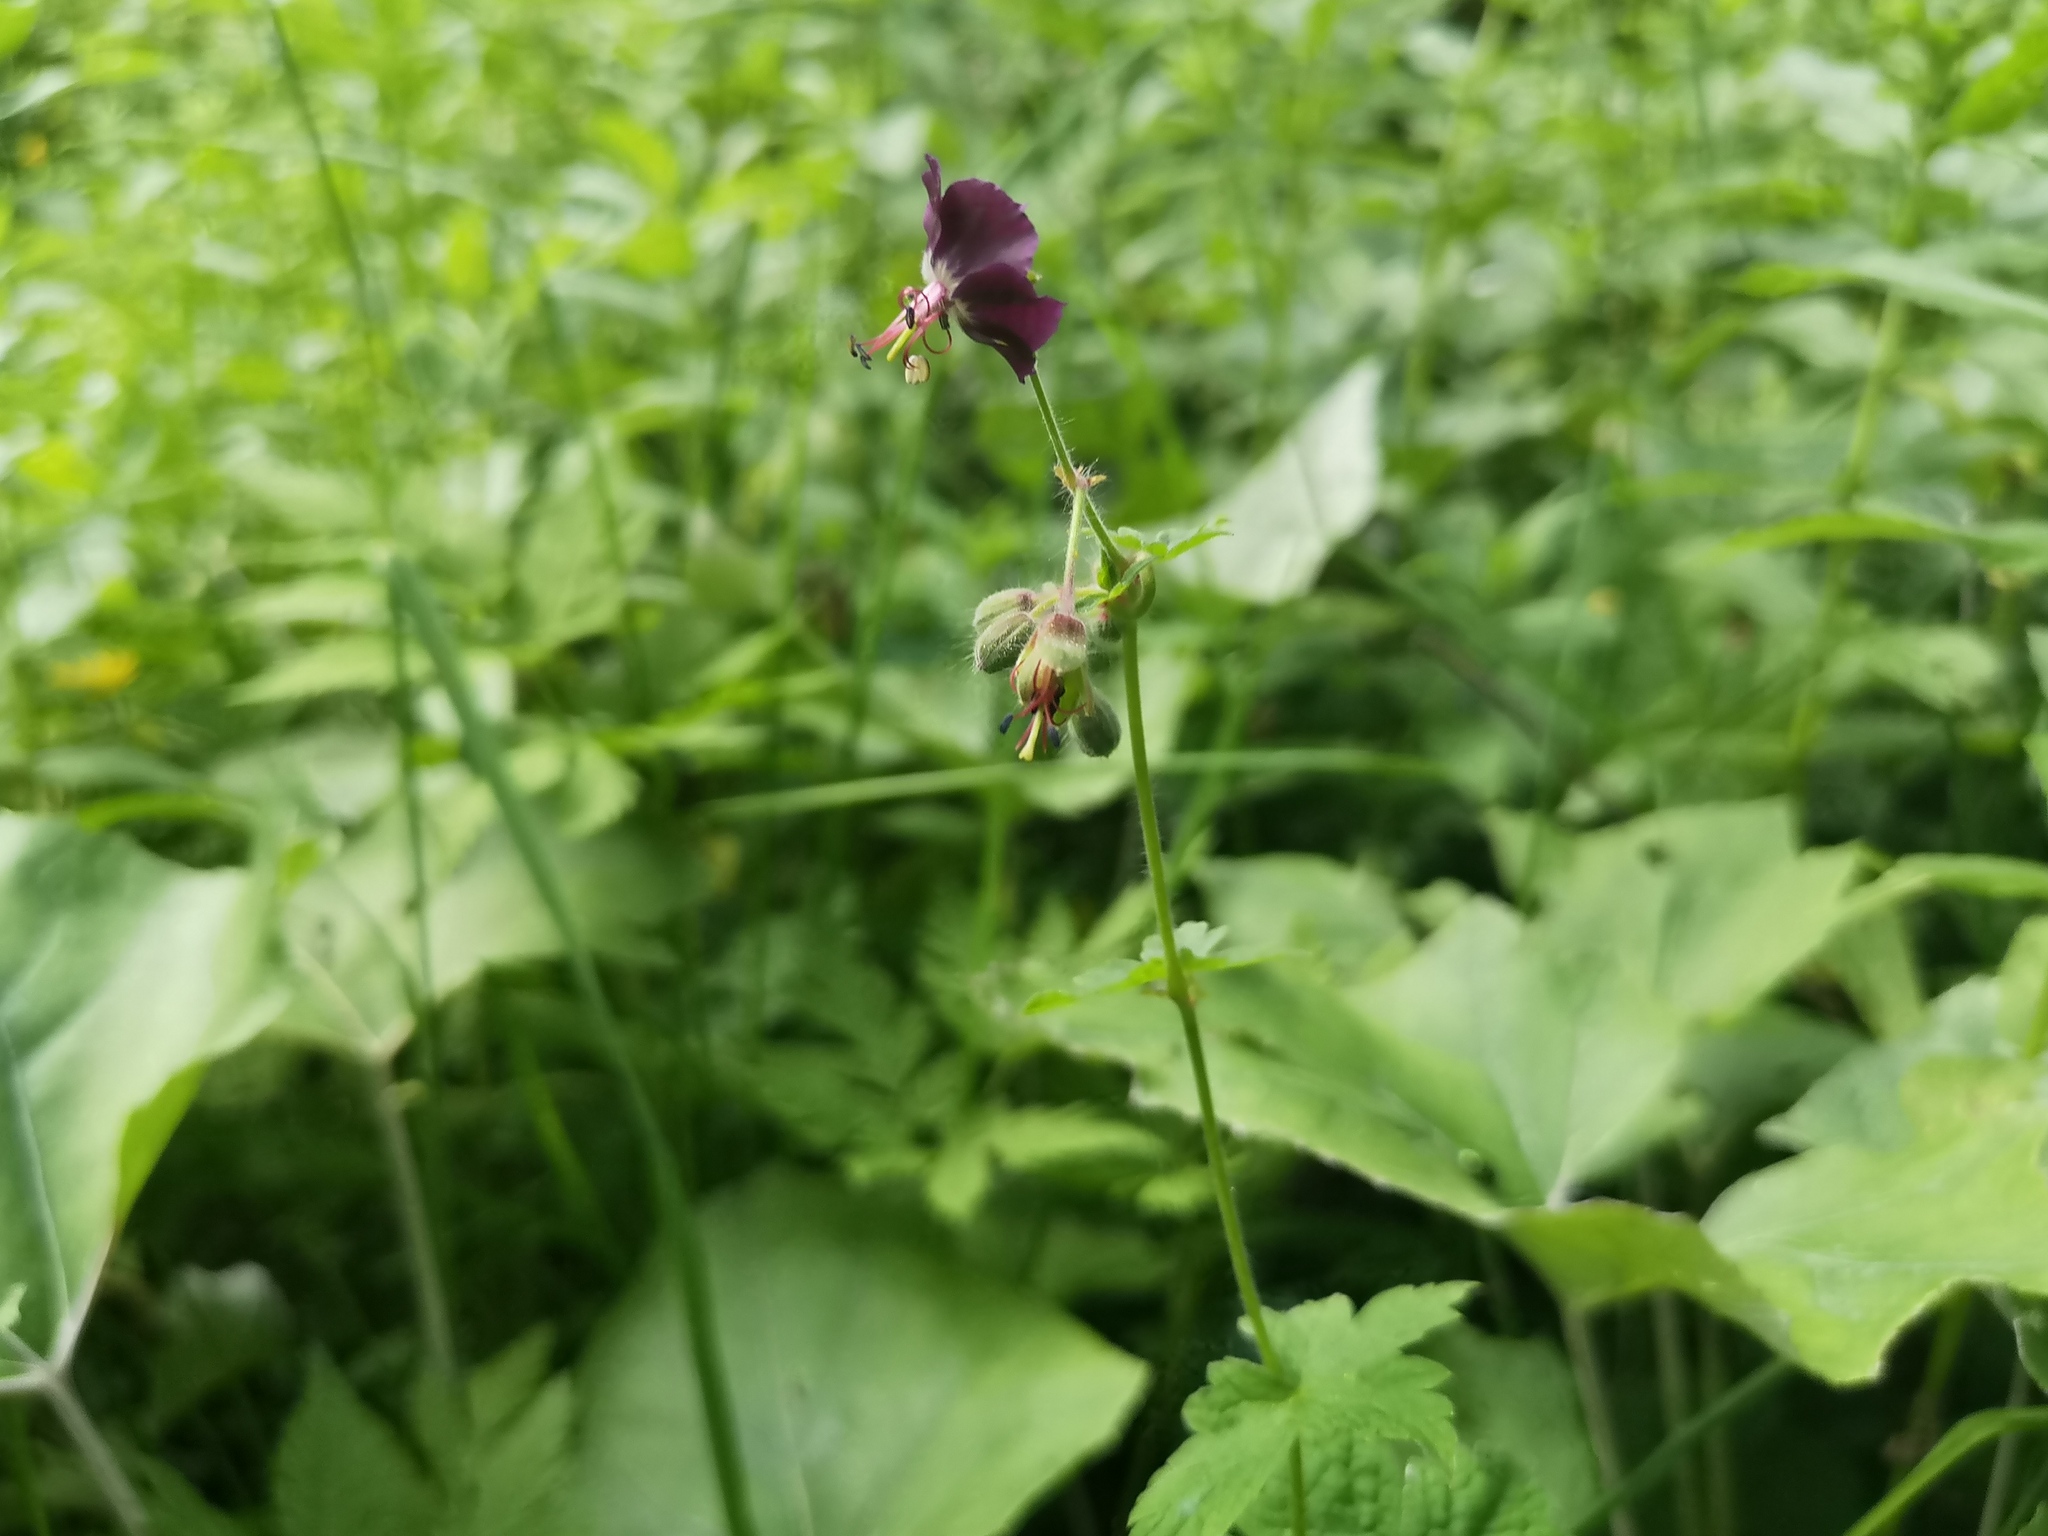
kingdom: Plantae
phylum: Tracheophyta
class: Magnoliopsida
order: Geraniales
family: Geraniaceae
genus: Geranium
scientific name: Geranium phaeum
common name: Dusky crane's-bill
